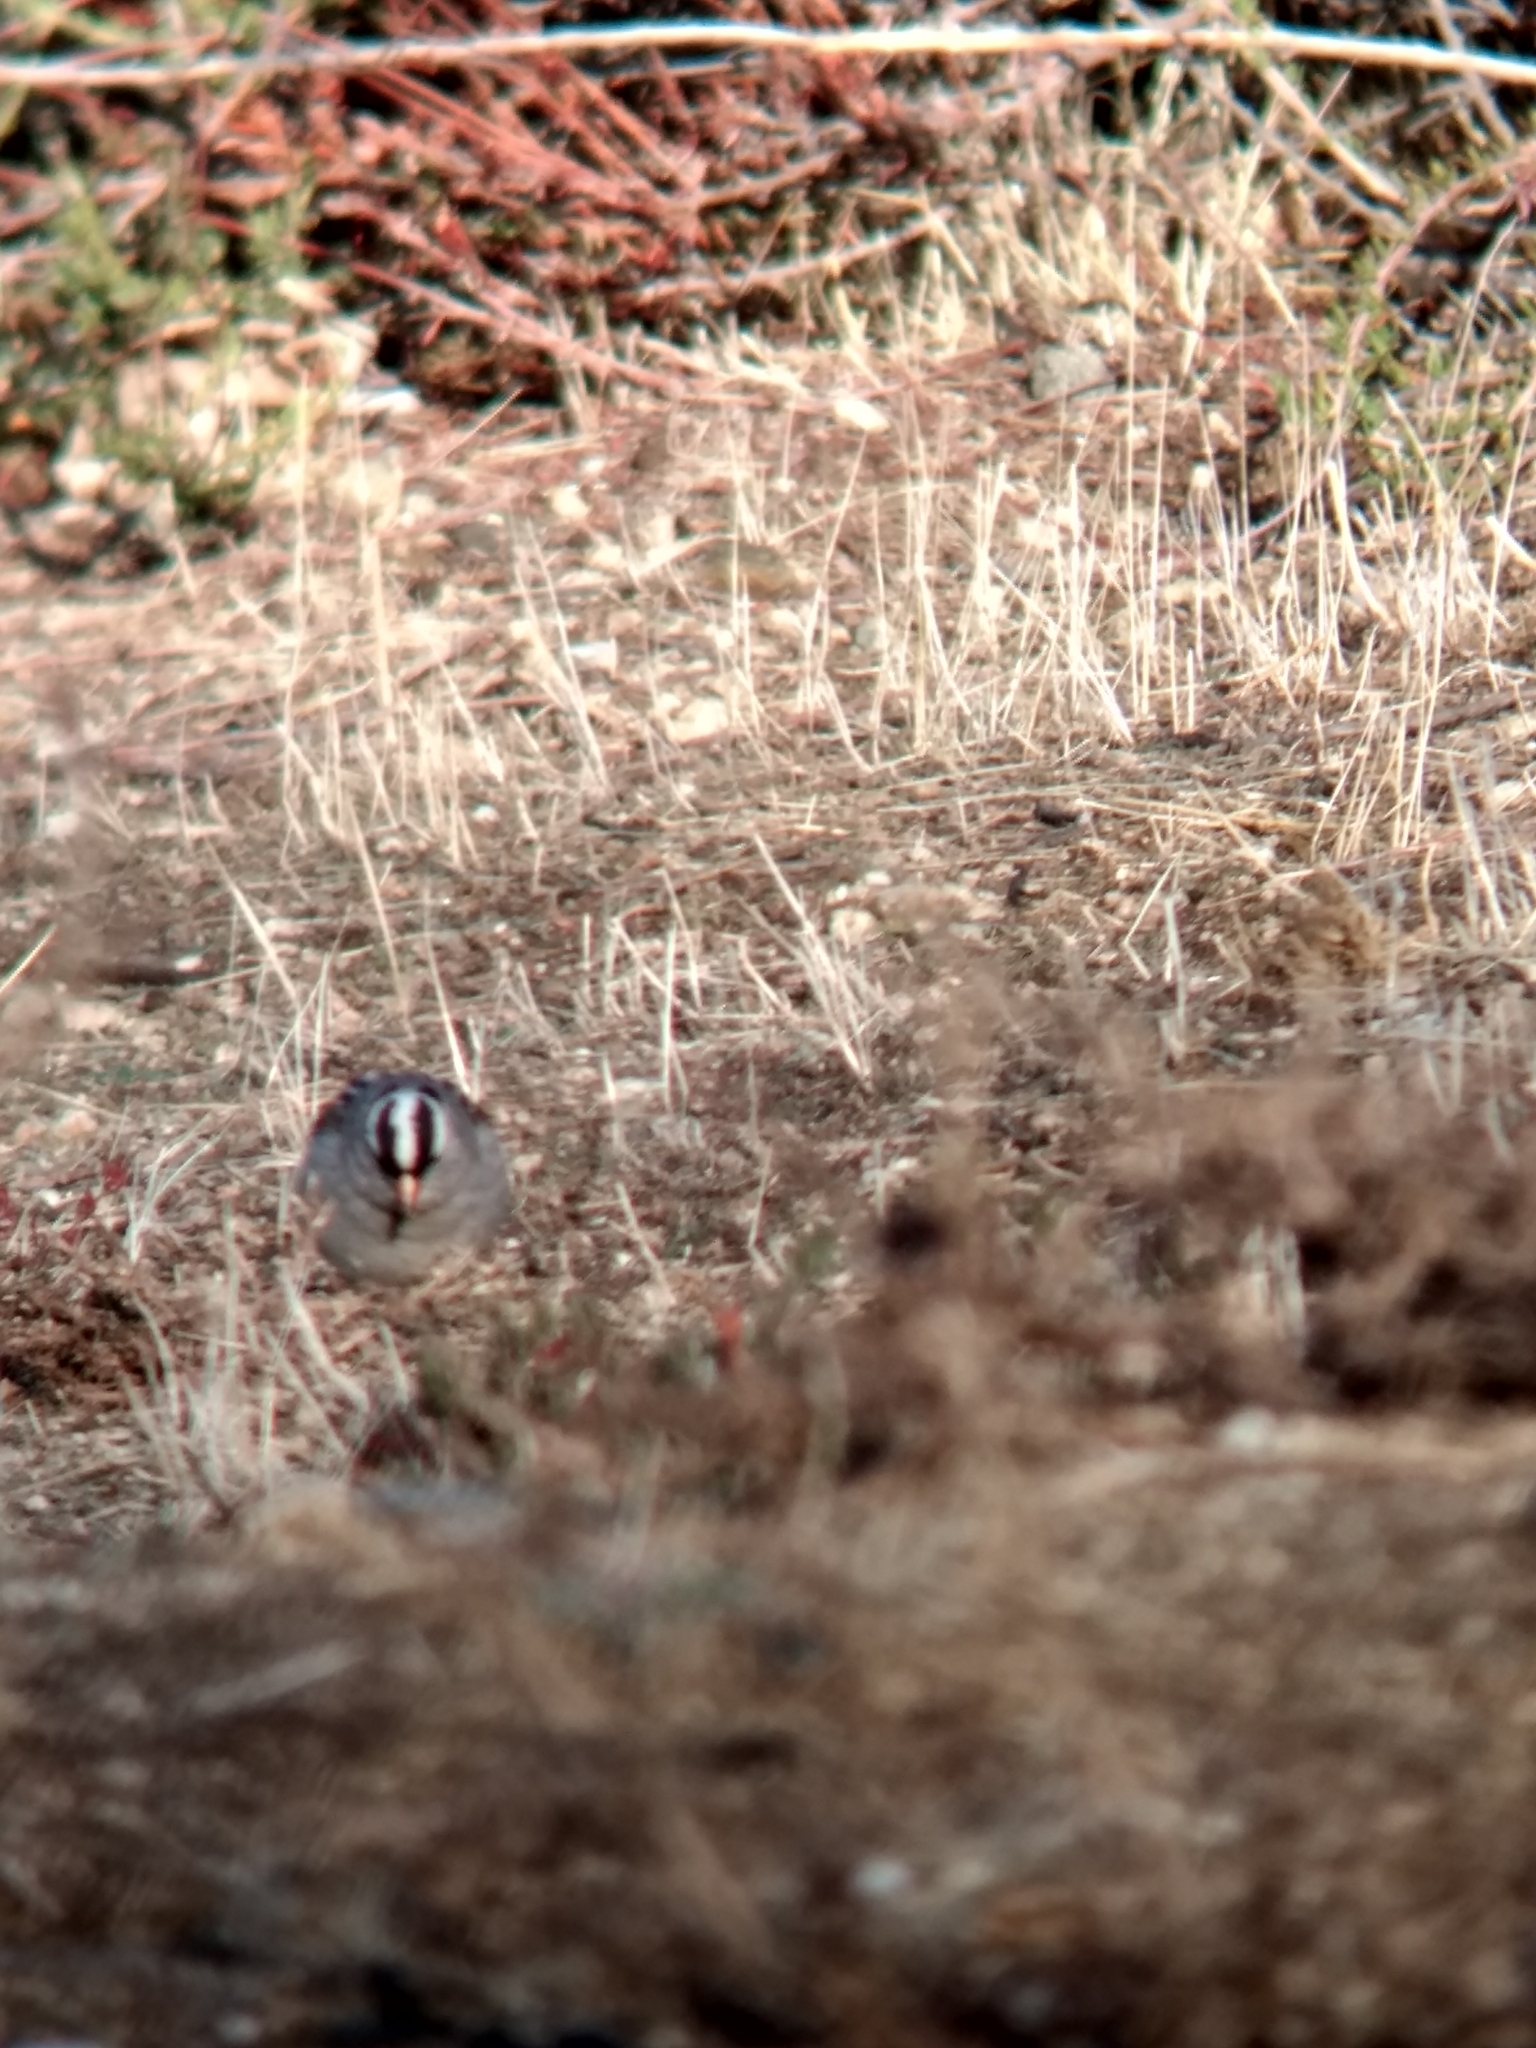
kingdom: Animalia
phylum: Chordata
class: Aves
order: Passeriformes
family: Passerellidae
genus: Zonotrichia
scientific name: Zonotrichia leucophrys
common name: White-crowned sparrow
